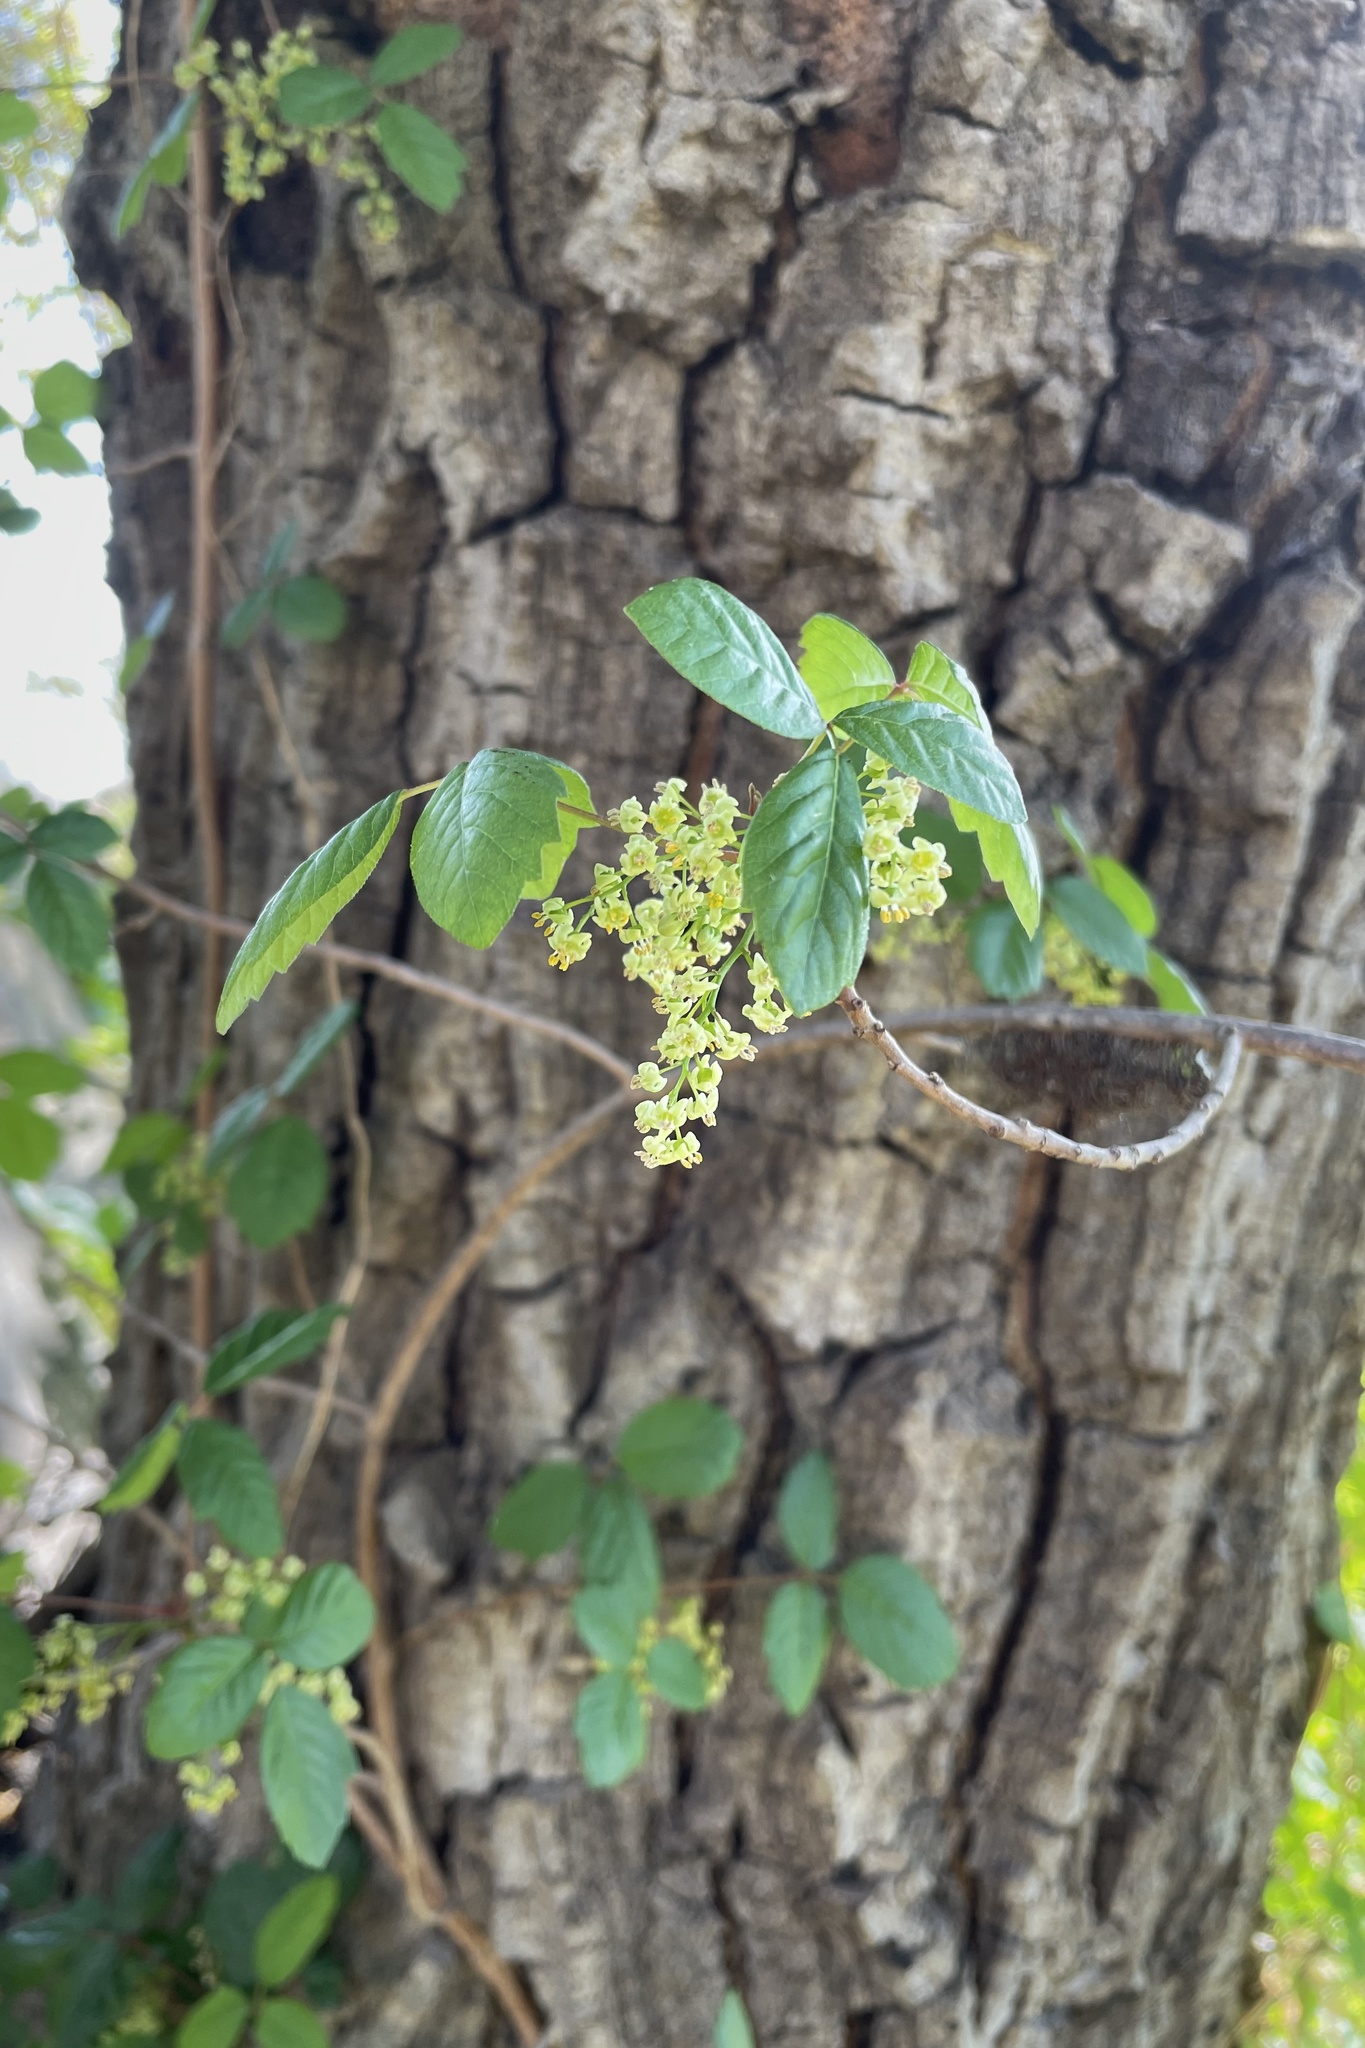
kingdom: Plantae
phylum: Tracheophyta
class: Magnoliopsida
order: Sapindales
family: Anacardiaceae
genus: Toxicodendron
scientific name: Toxicodendron diversilobum
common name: Pacific poison-oak
